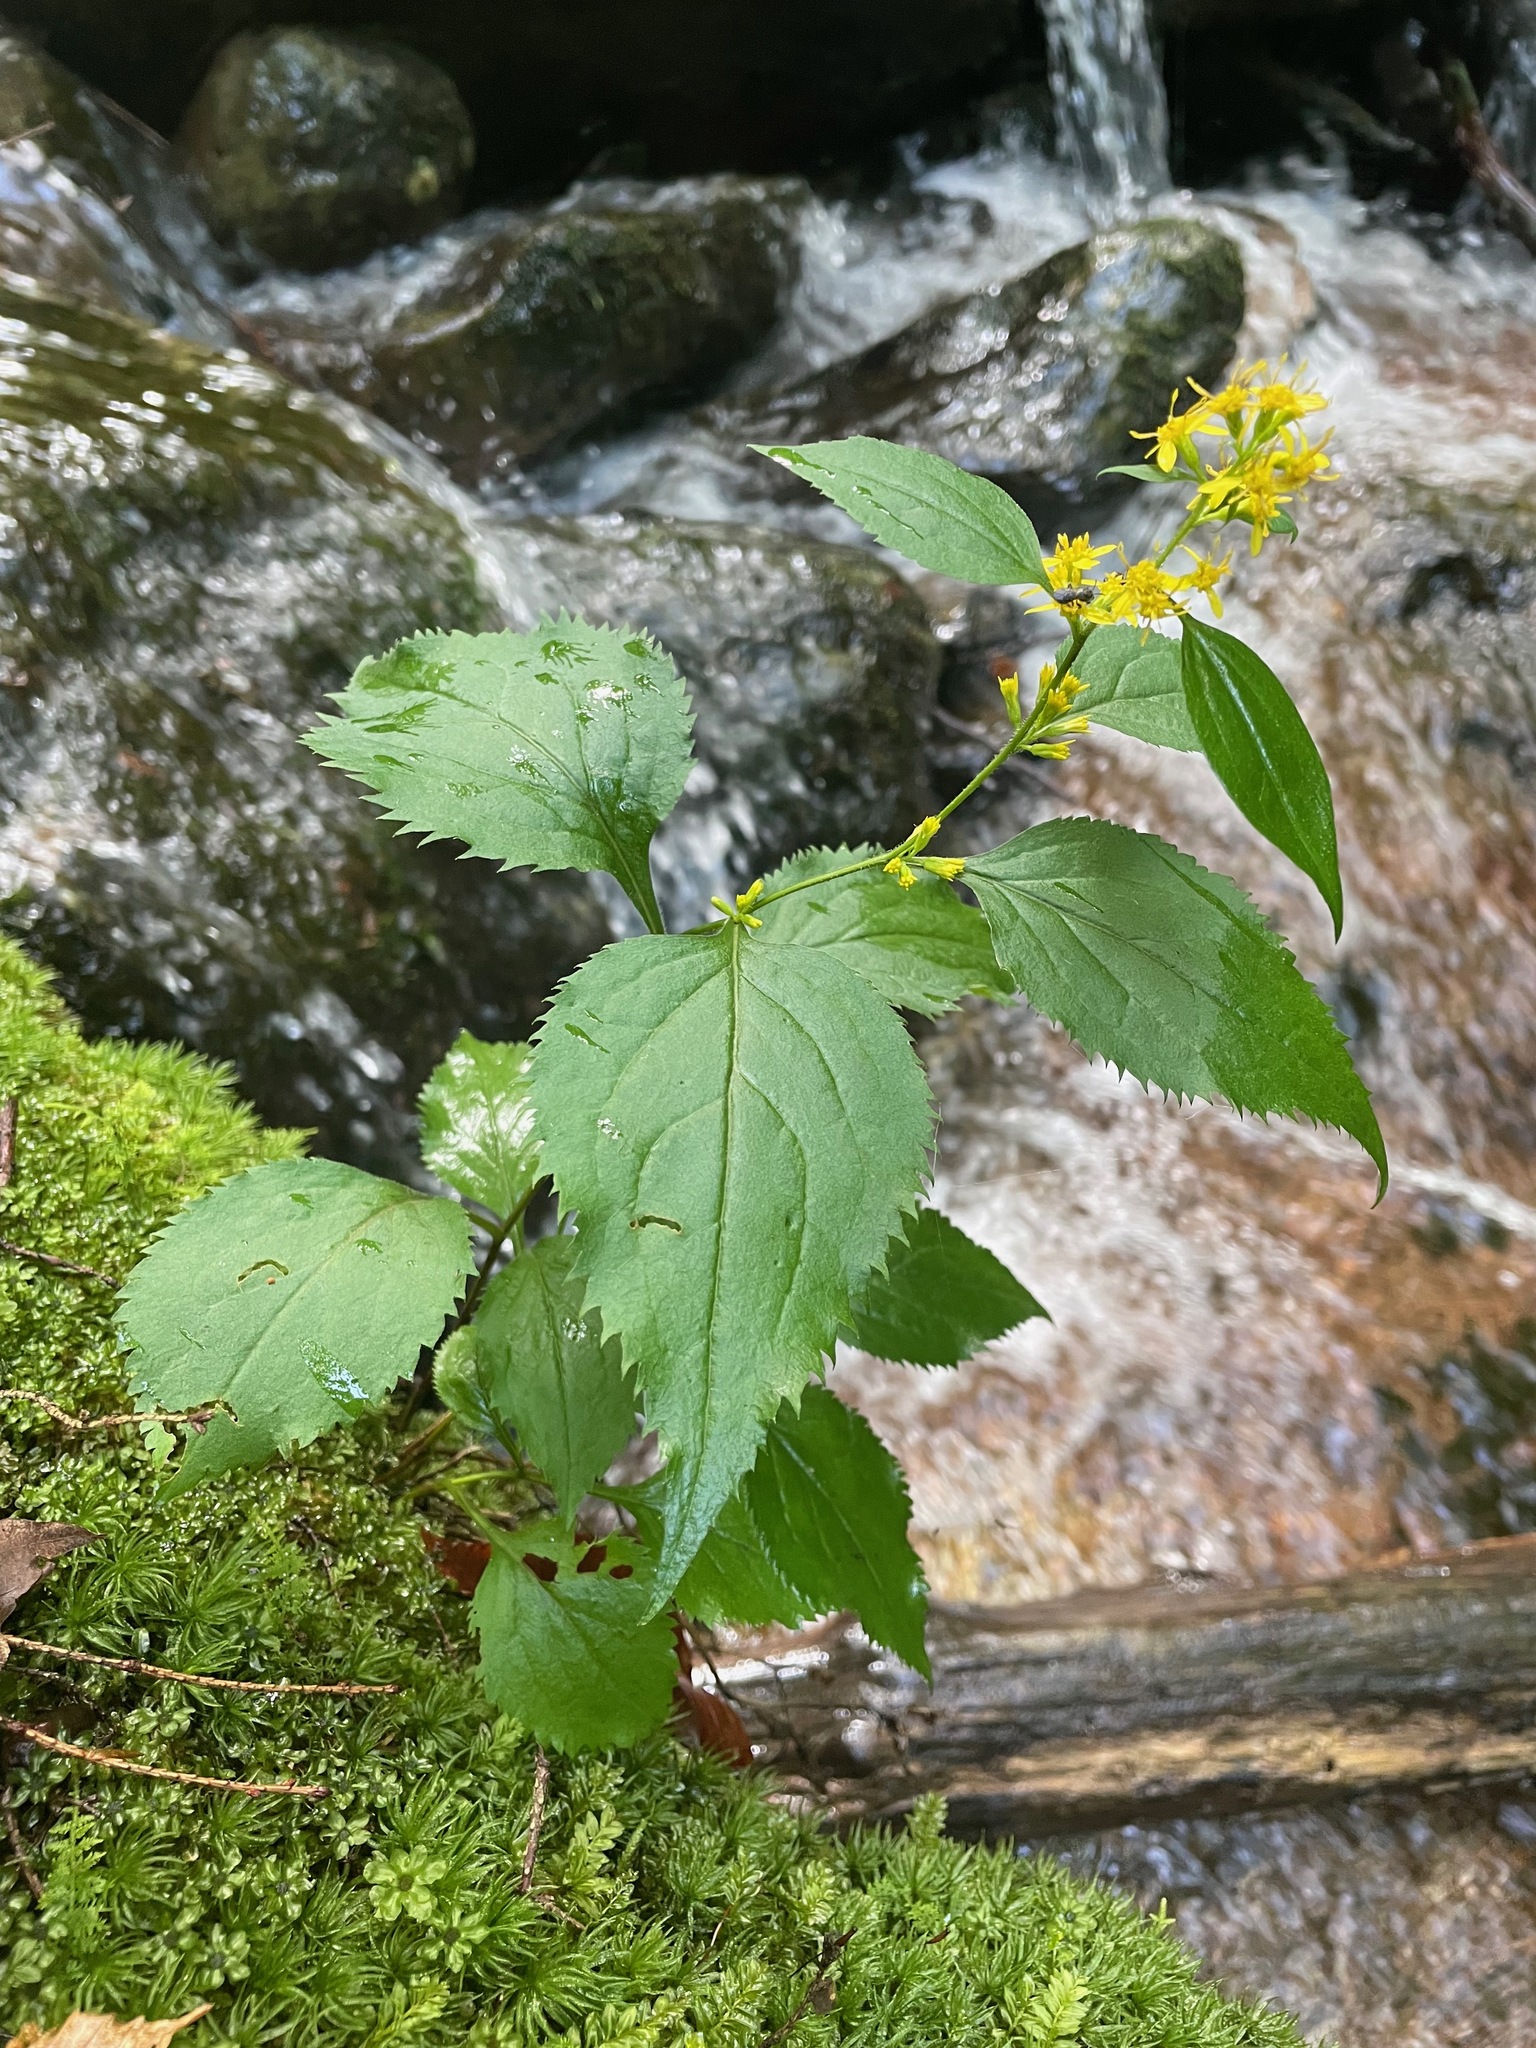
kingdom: Plantae
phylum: Tracheophyta
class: Magnoliopsida
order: Asterales
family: Asteraceae
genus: Solidago
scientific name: Solidago flexicaulis
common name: Zig-zag goldenrod
